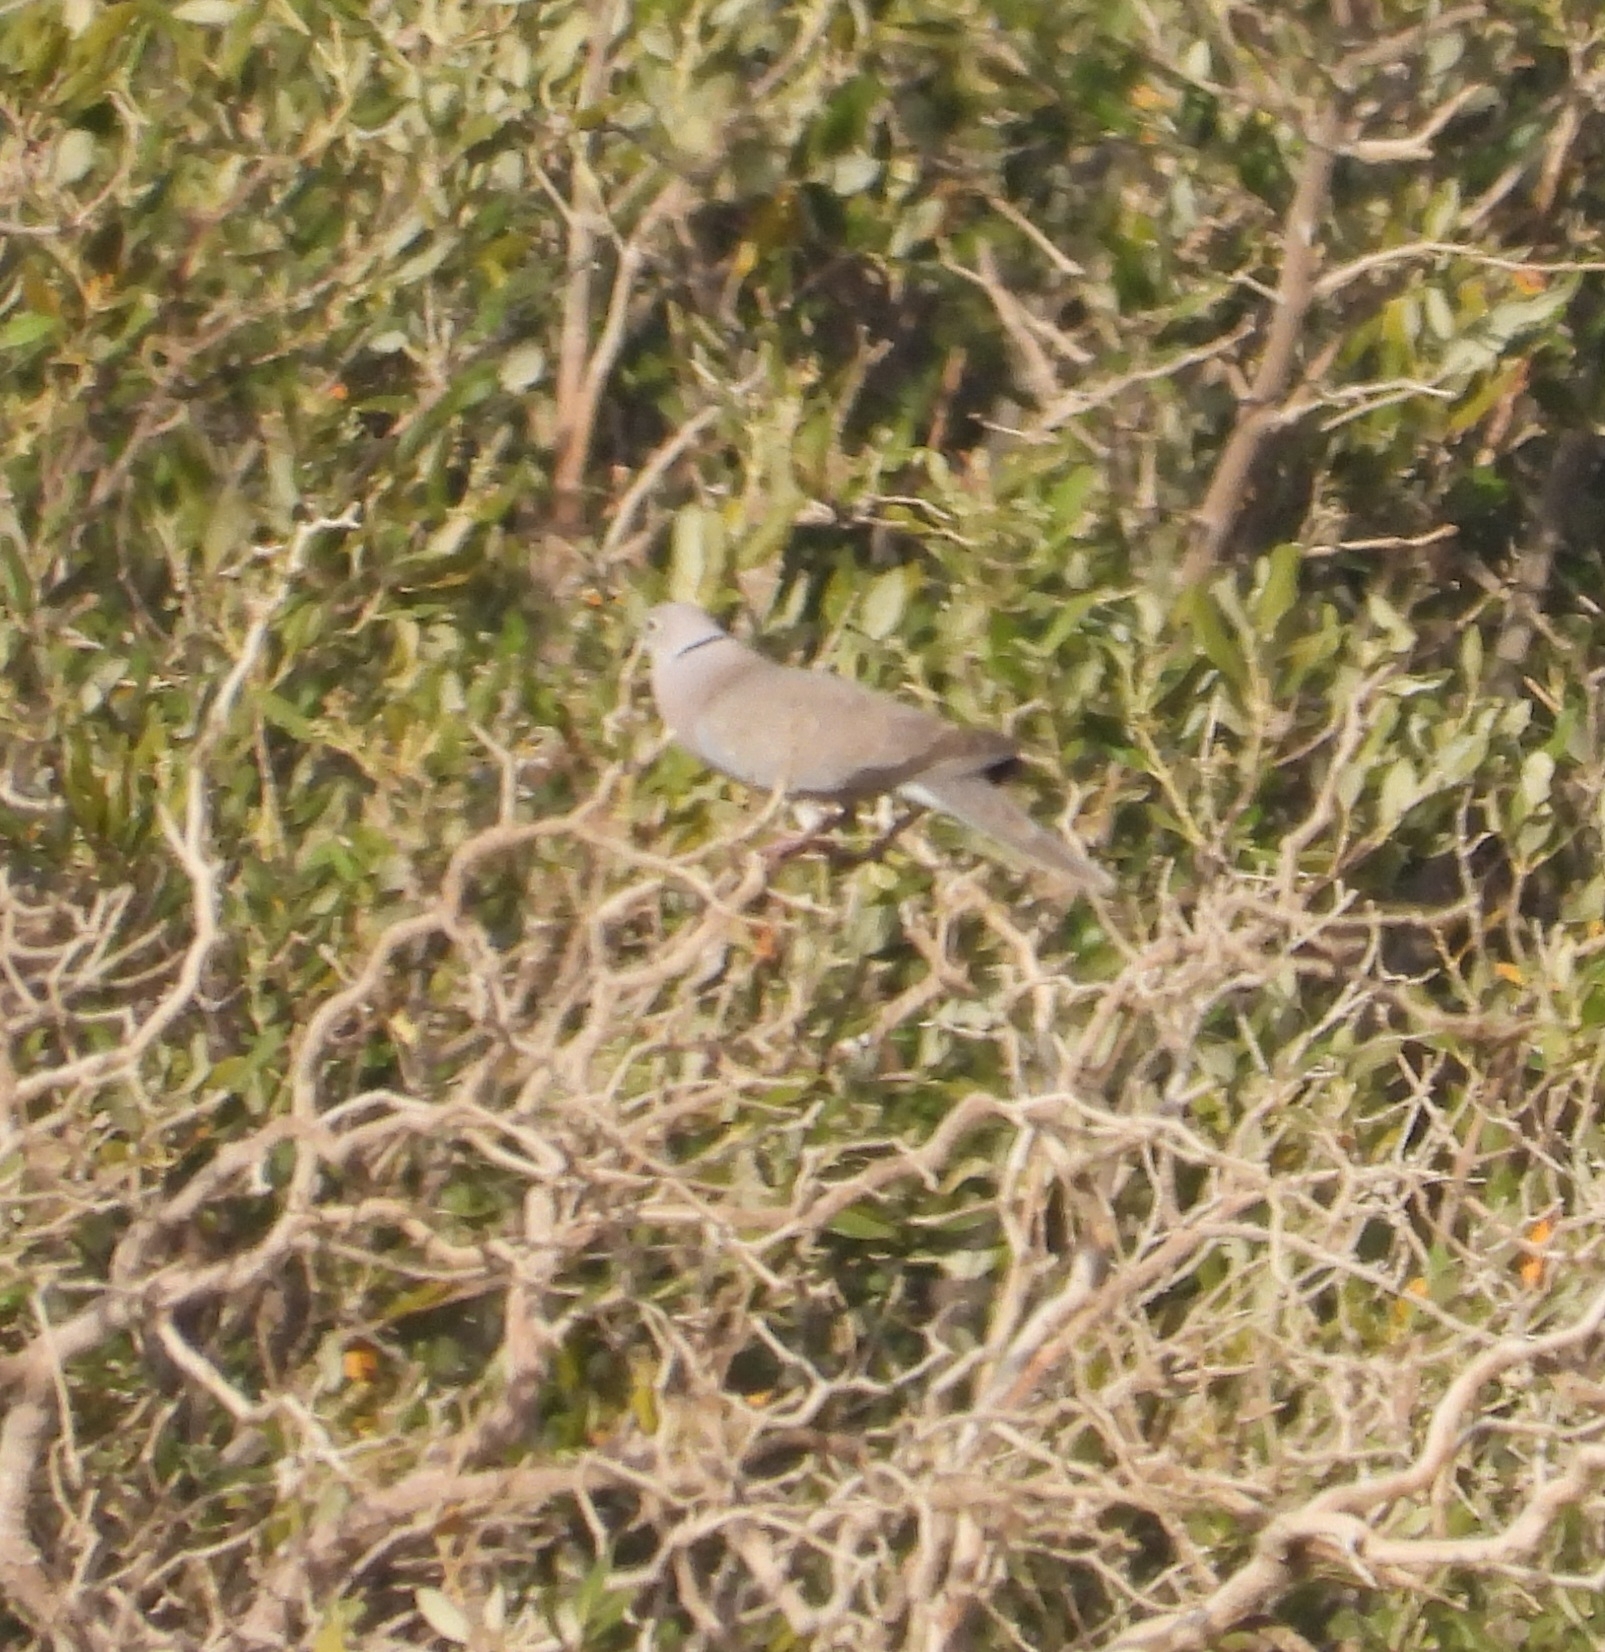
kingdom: Animalia
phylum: Chordata
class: Aves
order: Columbiformes
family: Columbidae
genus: Streptopelia
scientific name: Streptopelia decaocto
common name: Eurasian collared dove
